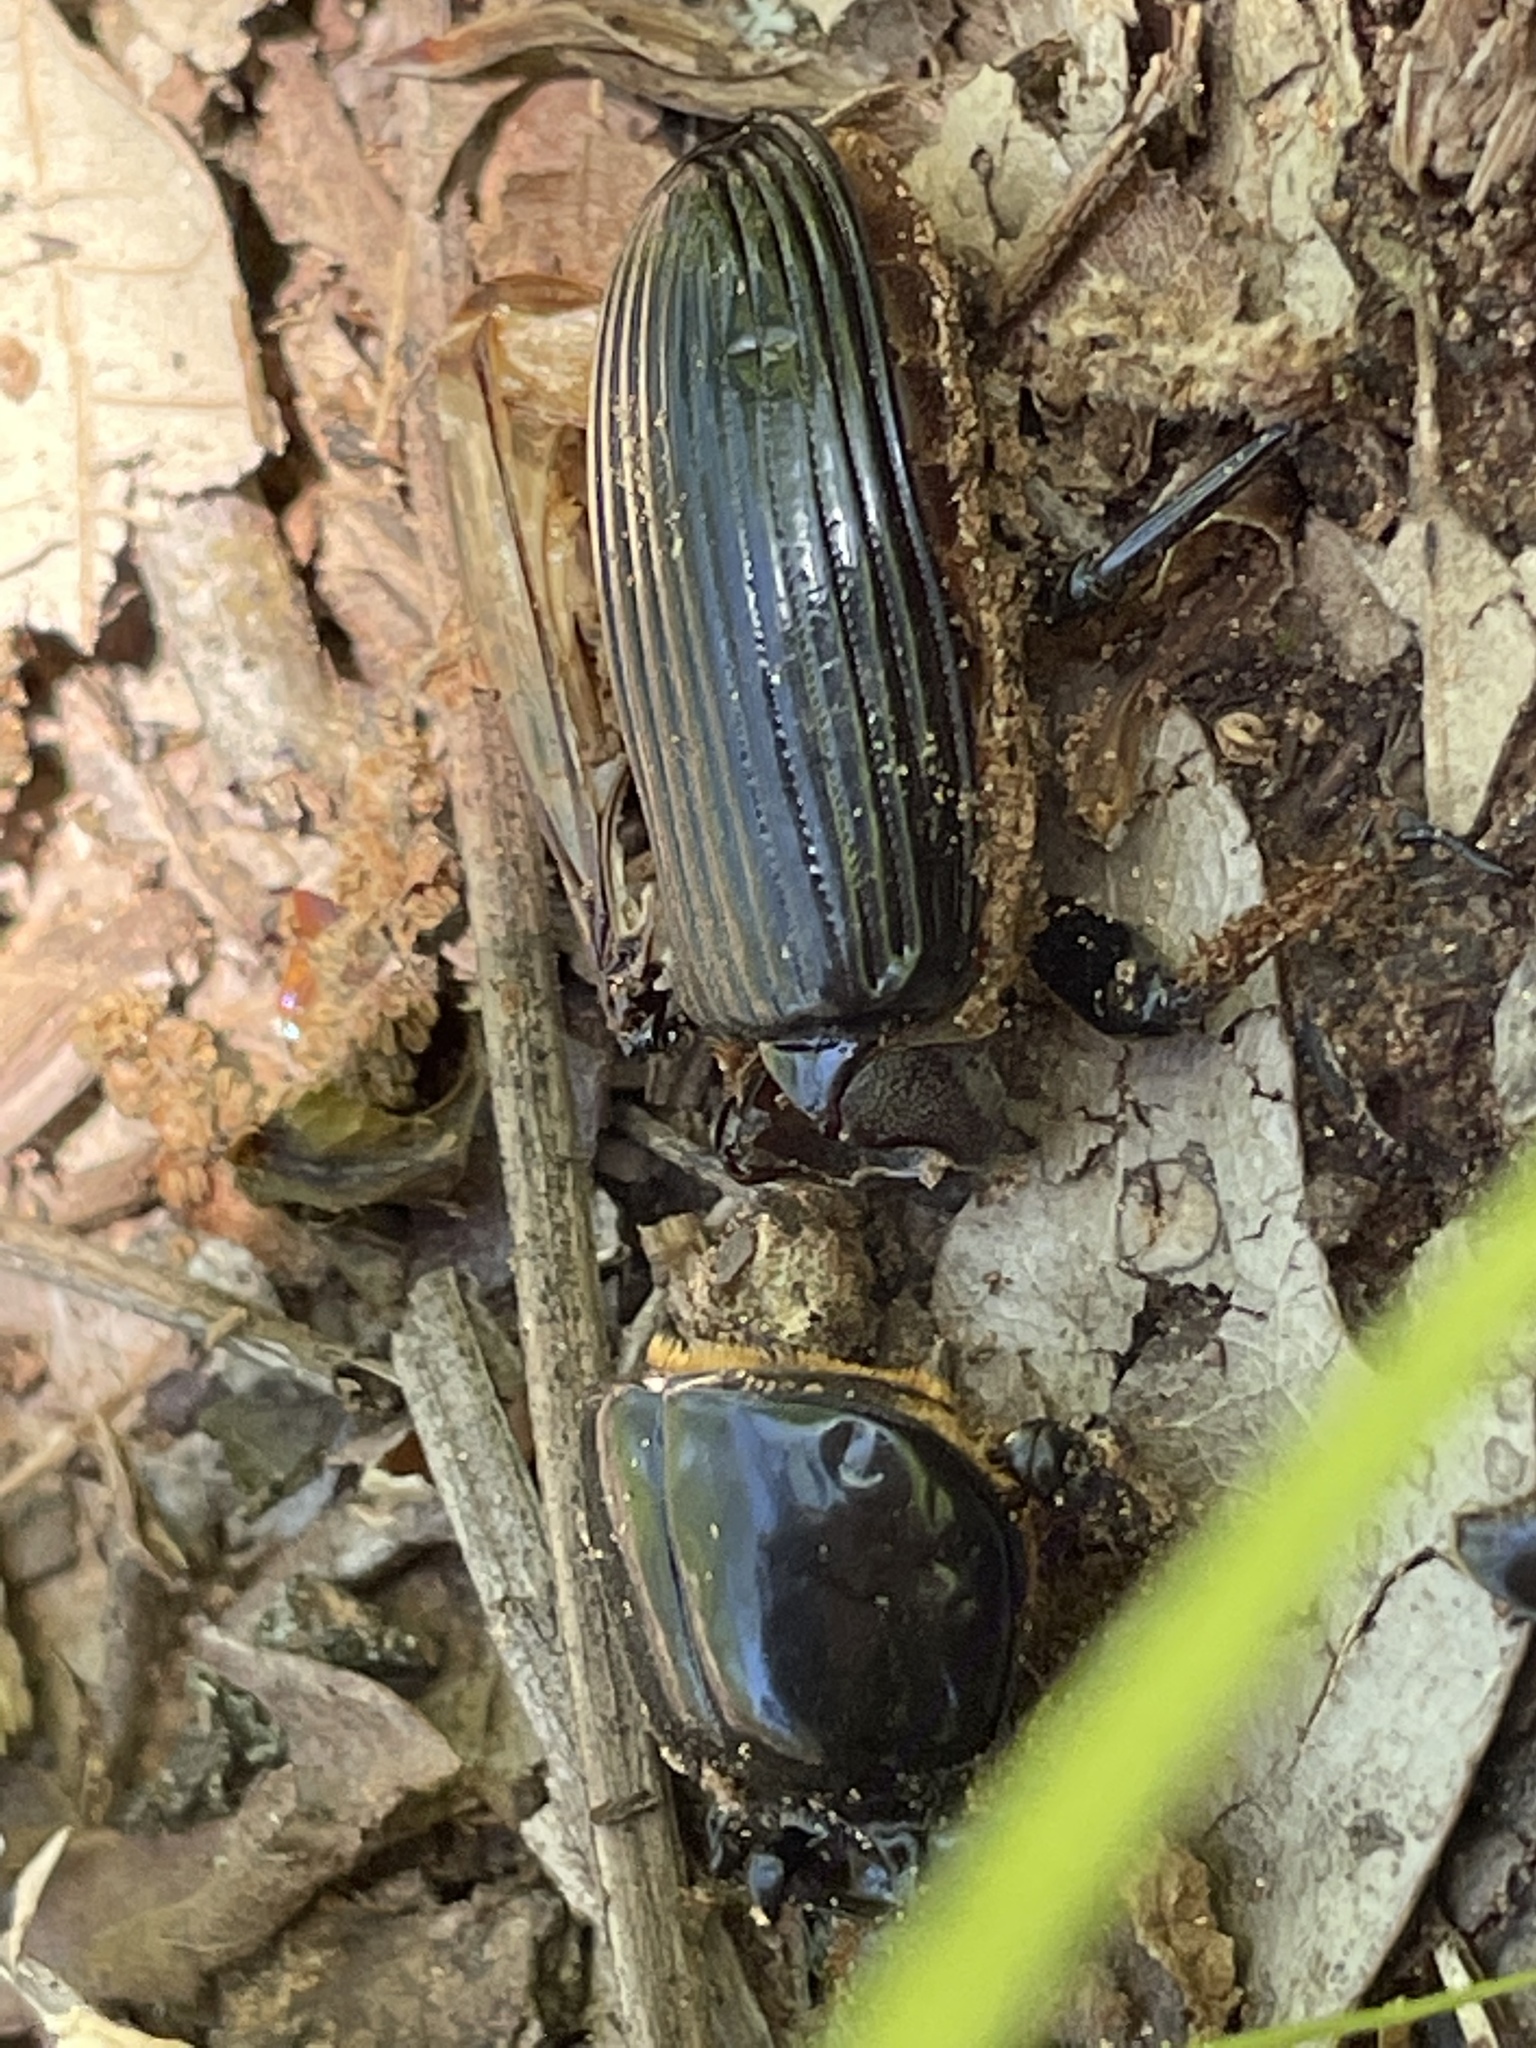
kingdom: Animalia
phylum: Arthropoda
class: Insecta
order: Coleoptera
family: Passalidae
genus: Odontotaenius
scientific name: Odontotaenius disjunctus
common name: Patent leather beetle
